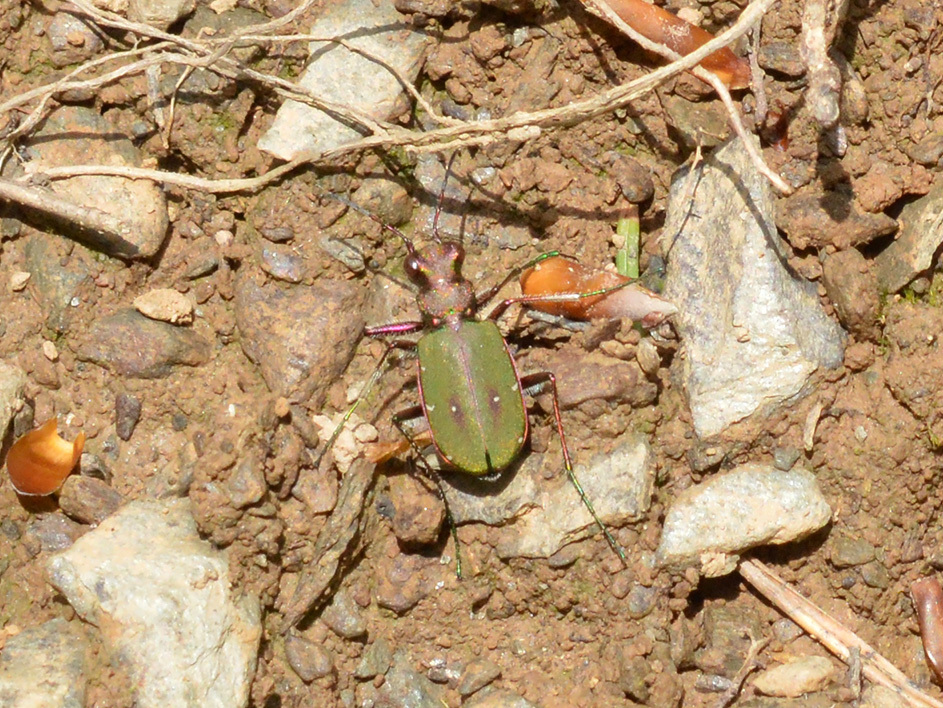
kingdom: Animalia
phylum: Arthropoda
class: Insecta
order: Coleoptera
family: Carabidae
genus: Cicindela
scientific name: Cicindela campestris
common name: Common tiger beetle
